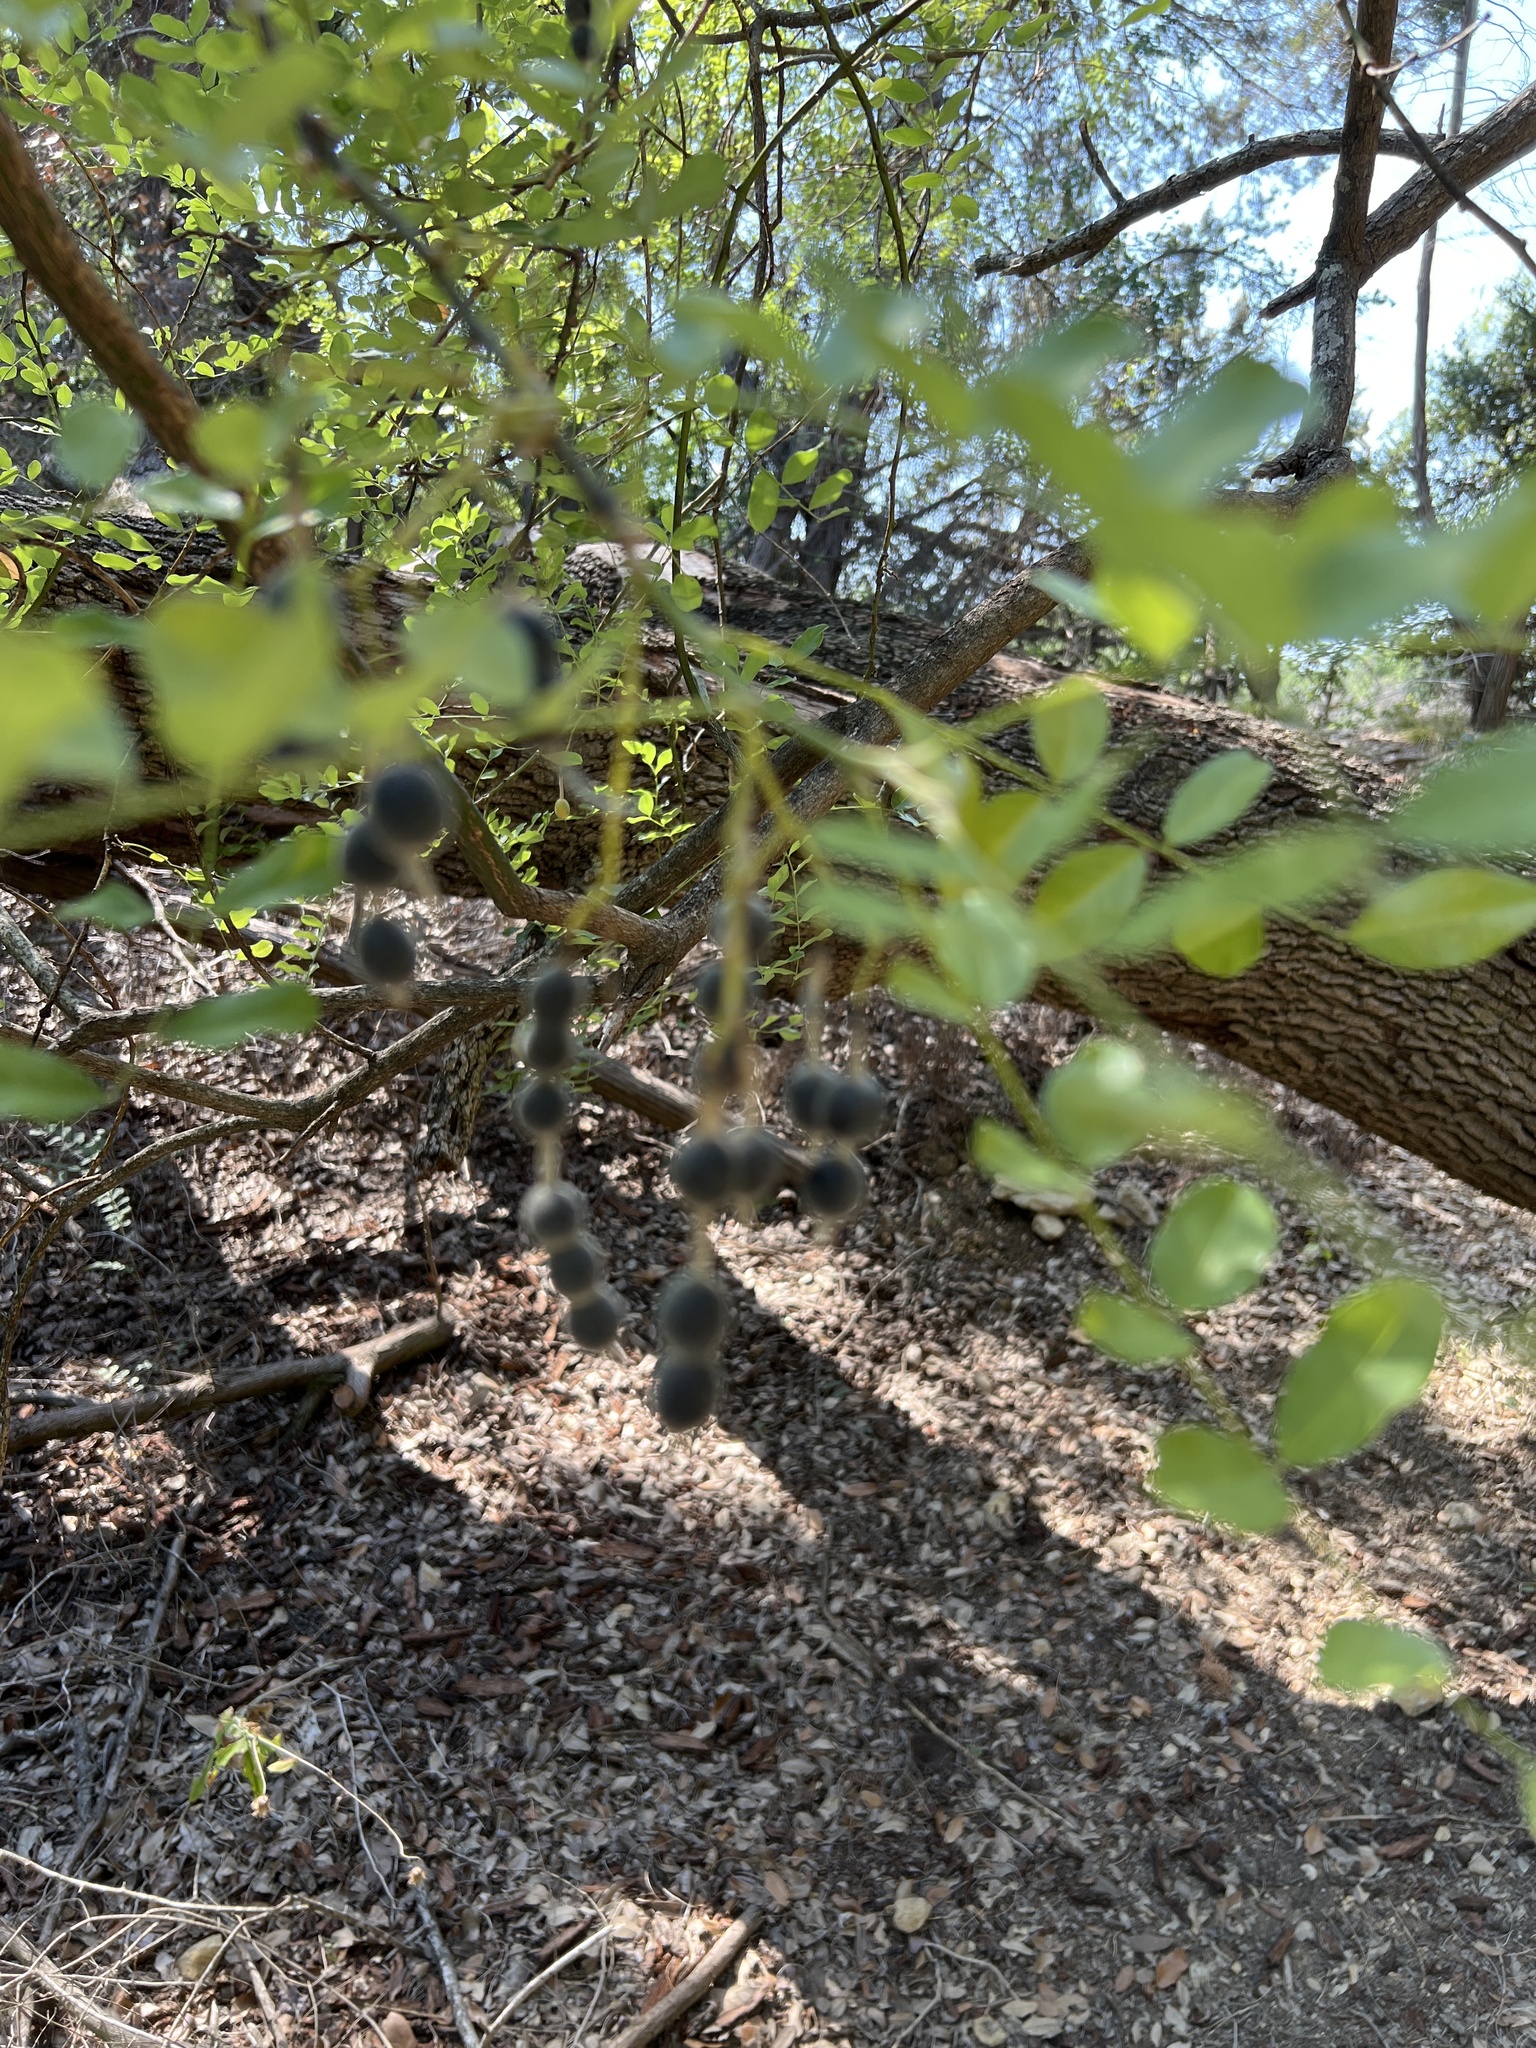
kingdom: Plantae
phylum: Tracheophyta
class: Magnoliopsida
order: Fabales
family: Fabaceae
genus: Styphnolobium
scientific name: Styphnolobium affine
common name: Texas sophora
